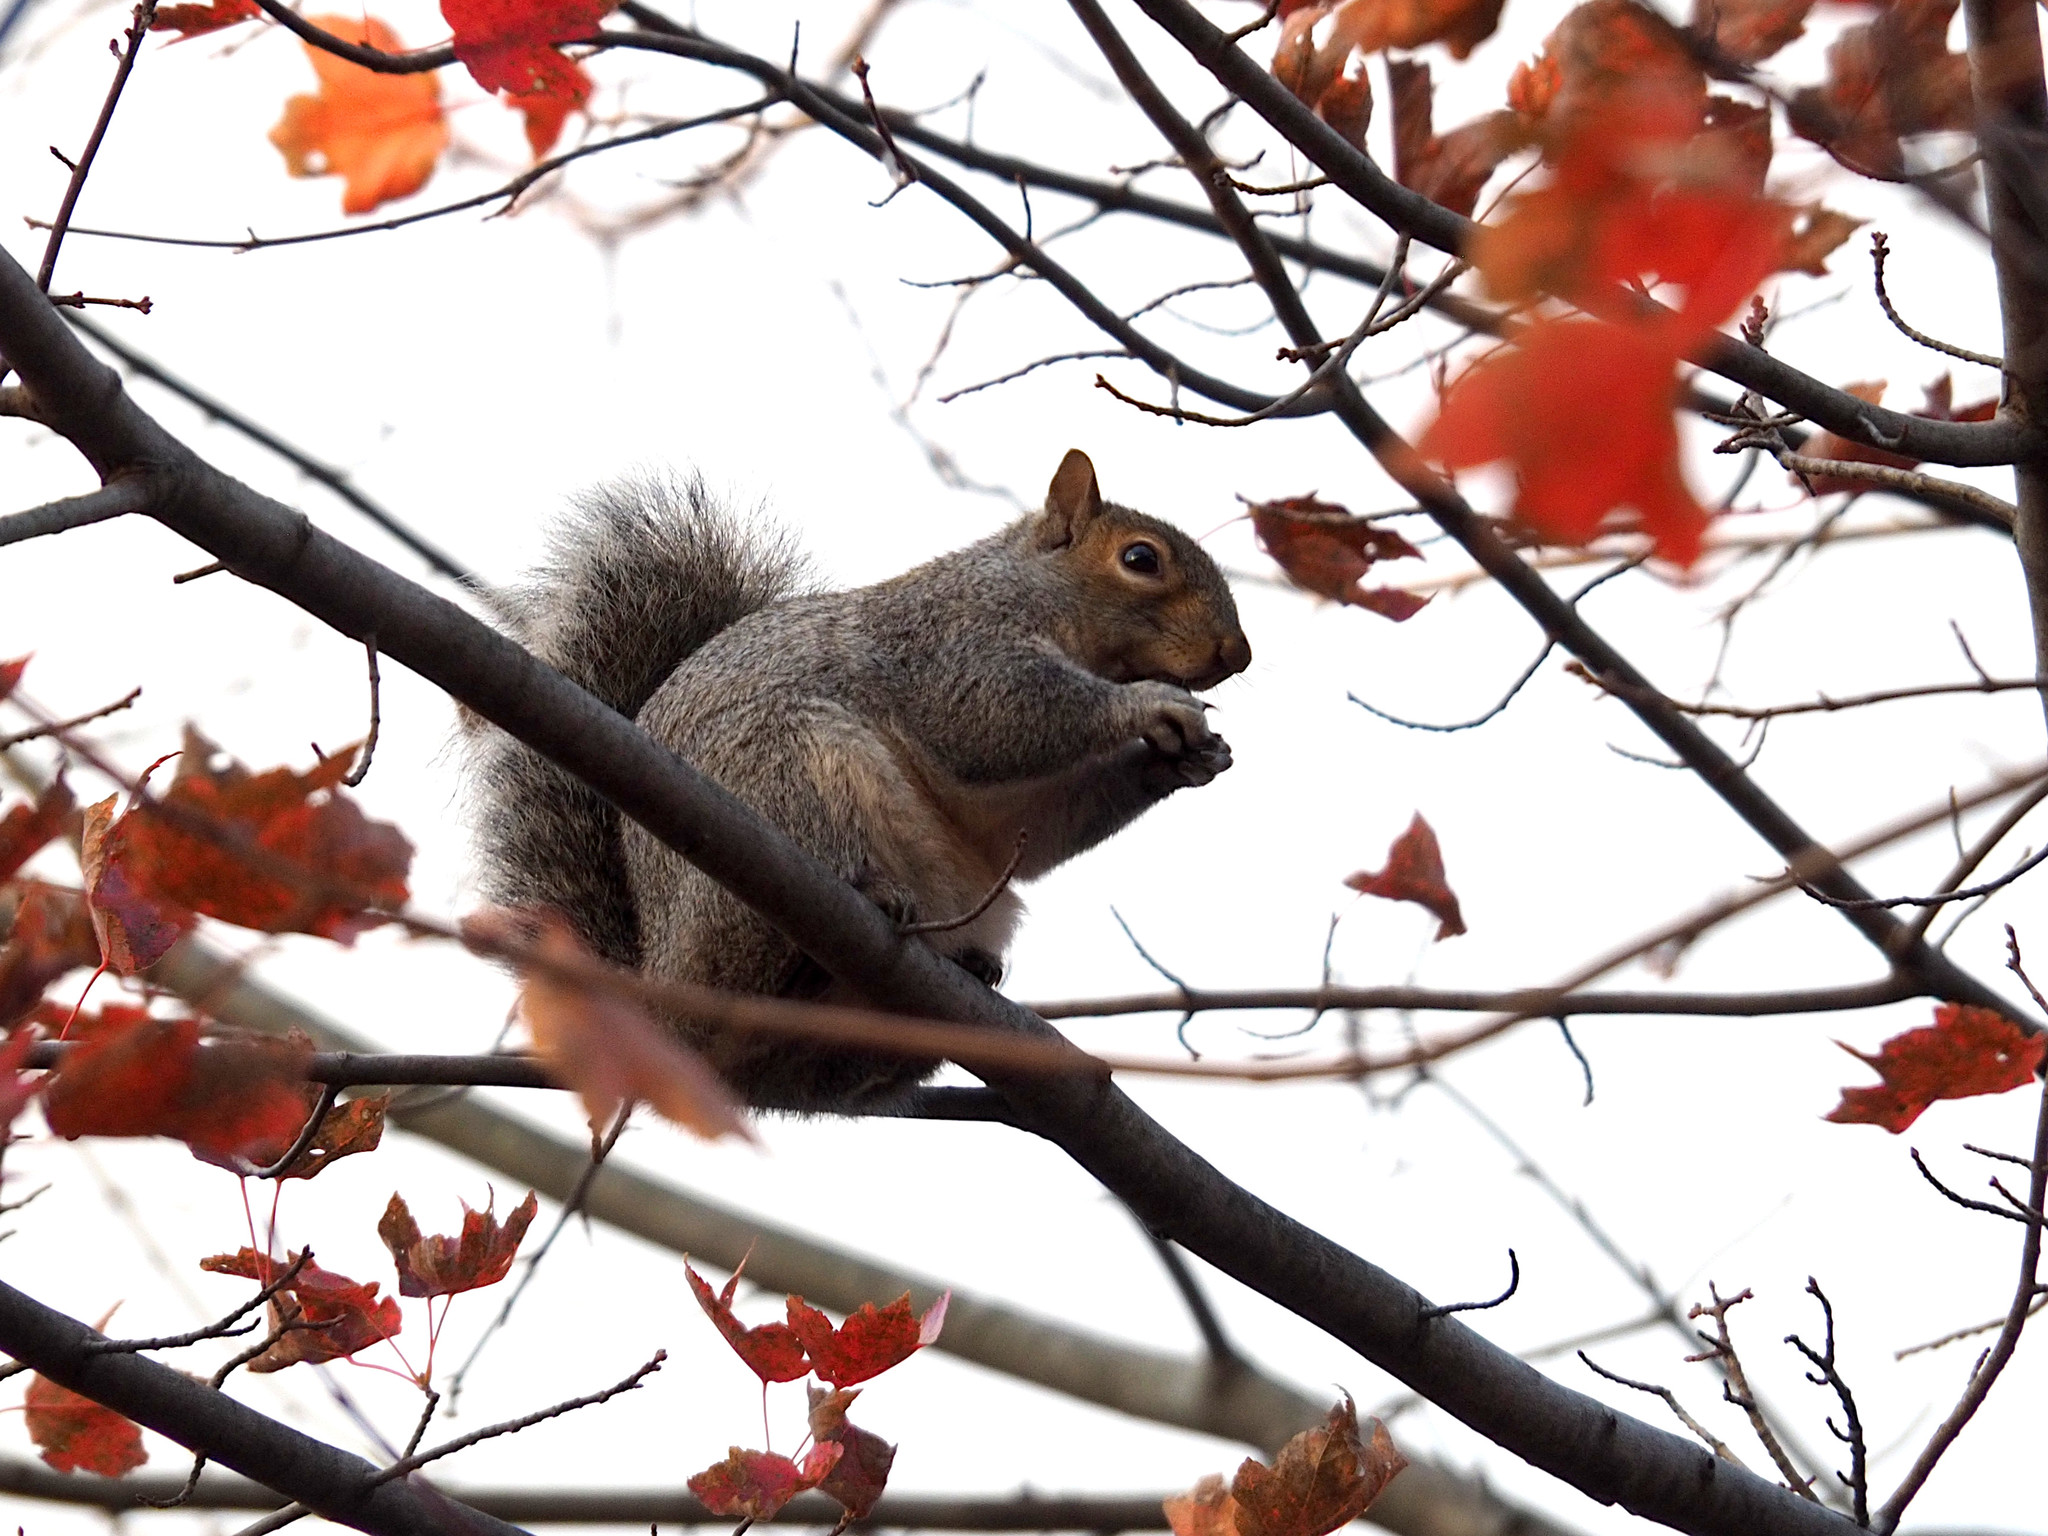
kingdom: Animalia
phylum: Chordata
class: Mammalia
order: Rodentia
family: Sciuridae
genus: Sciurus
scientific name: Sciurus carolinensis
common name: Eastern gray squirrel
